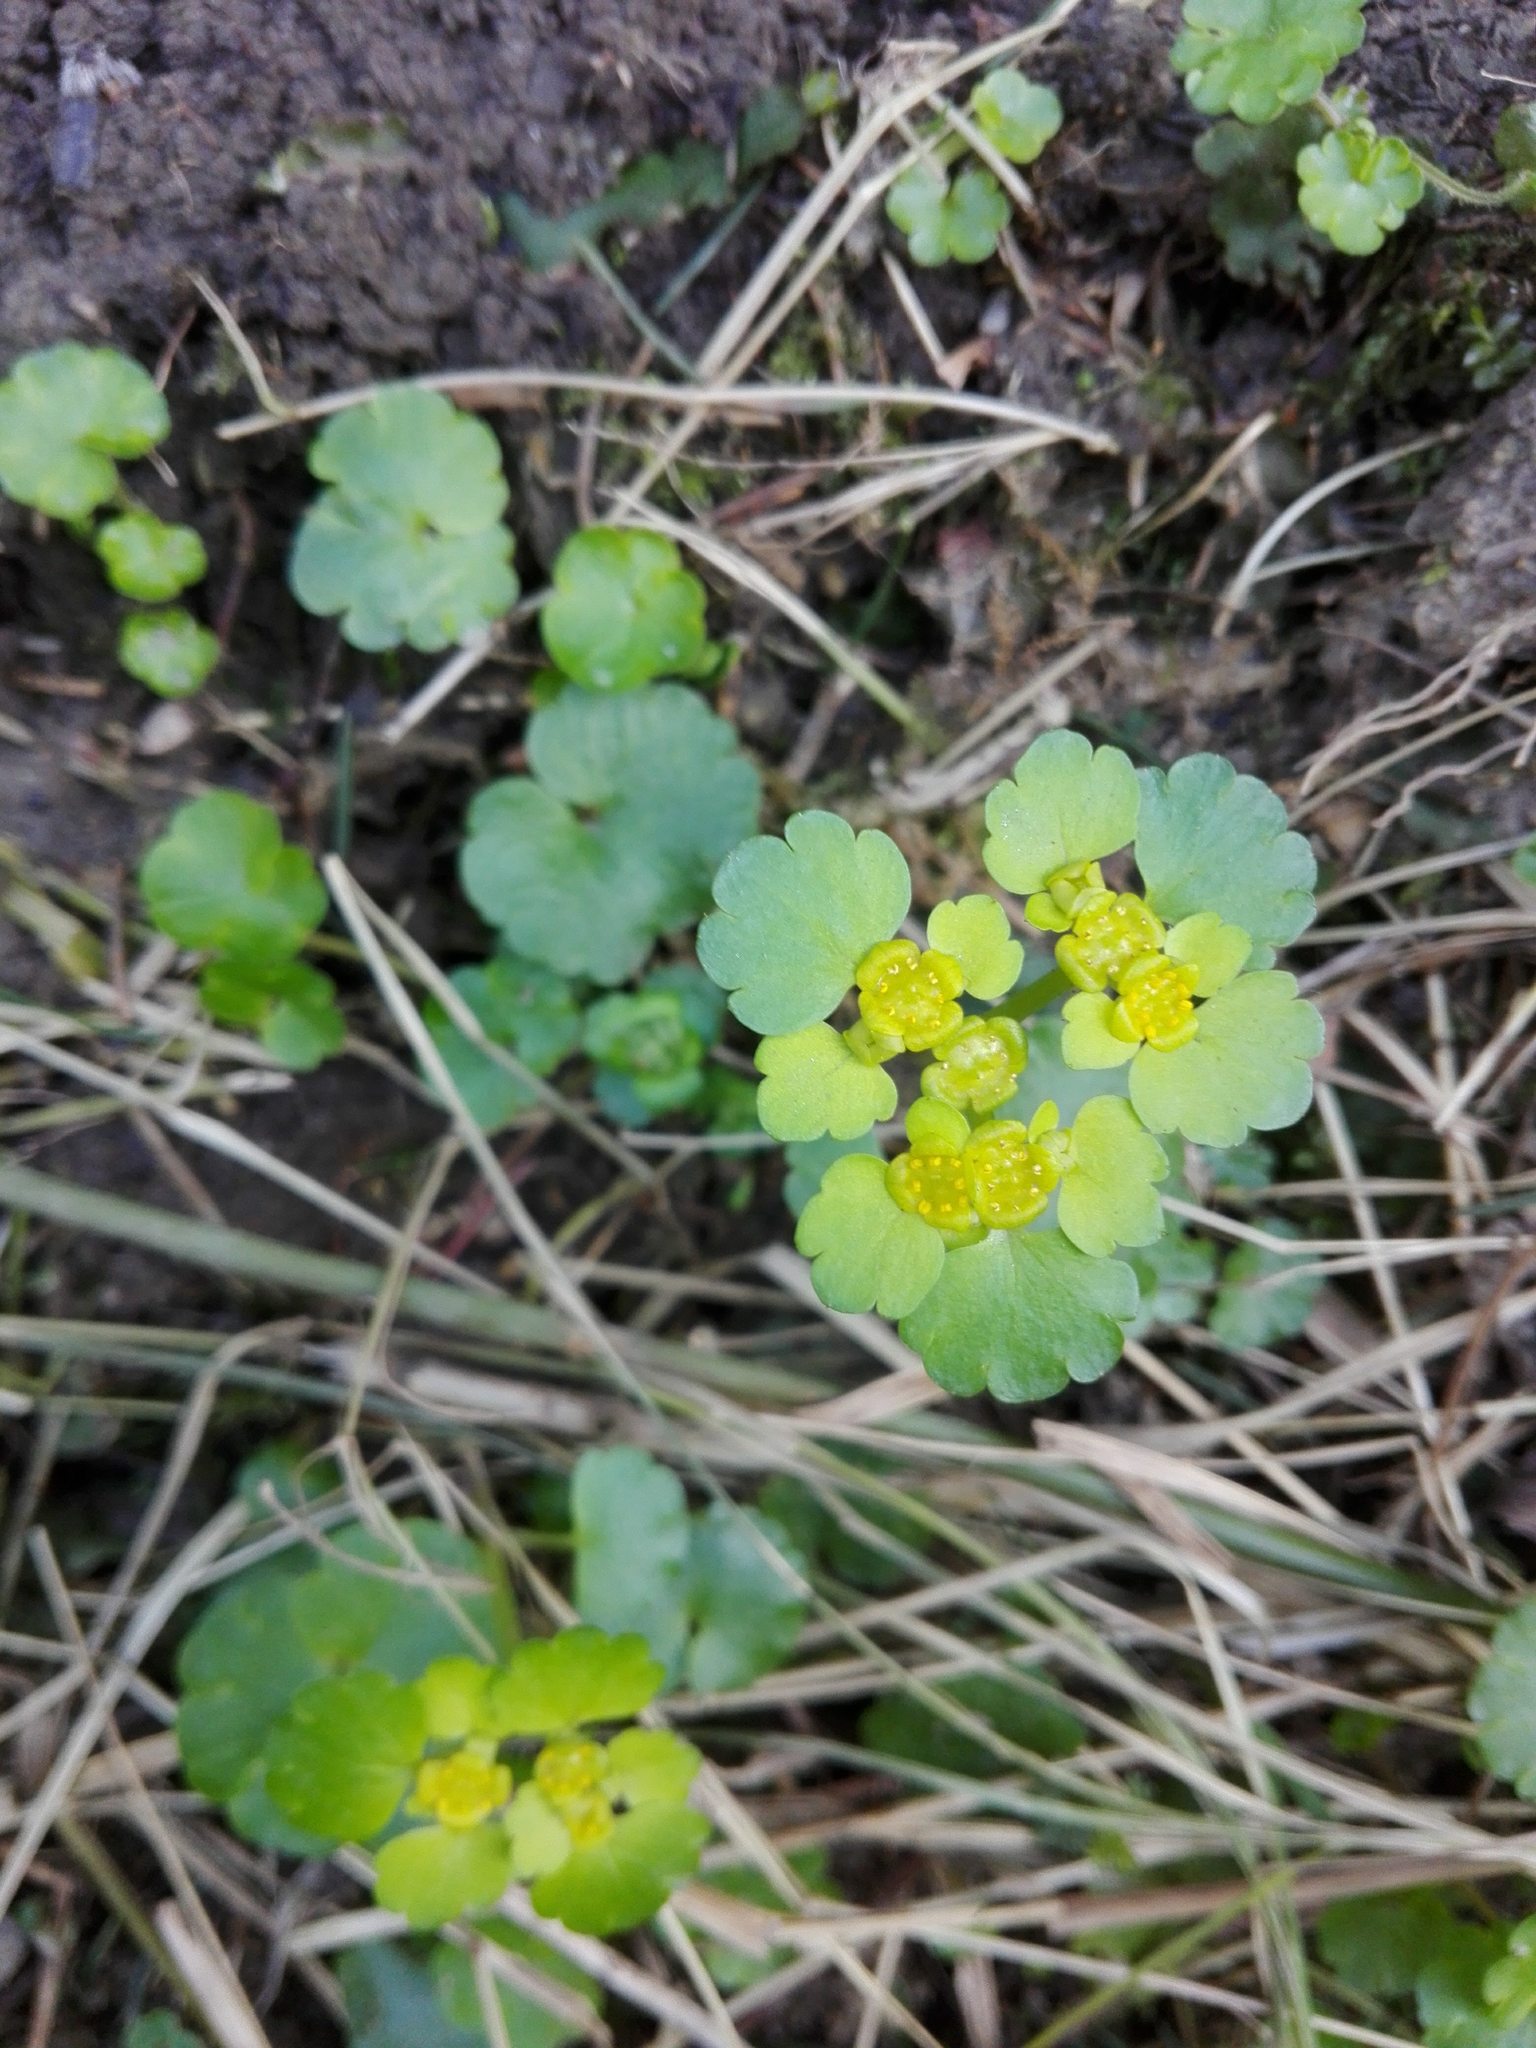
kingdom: Plantae
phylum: Tracheophyta
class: Magnoliopsida
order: Saxifragales
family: Saxifragaceae
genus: Chrysosplenium
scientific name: Chrysosplenium alternifolium
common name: Alternate-leaved golden-saxifrage
